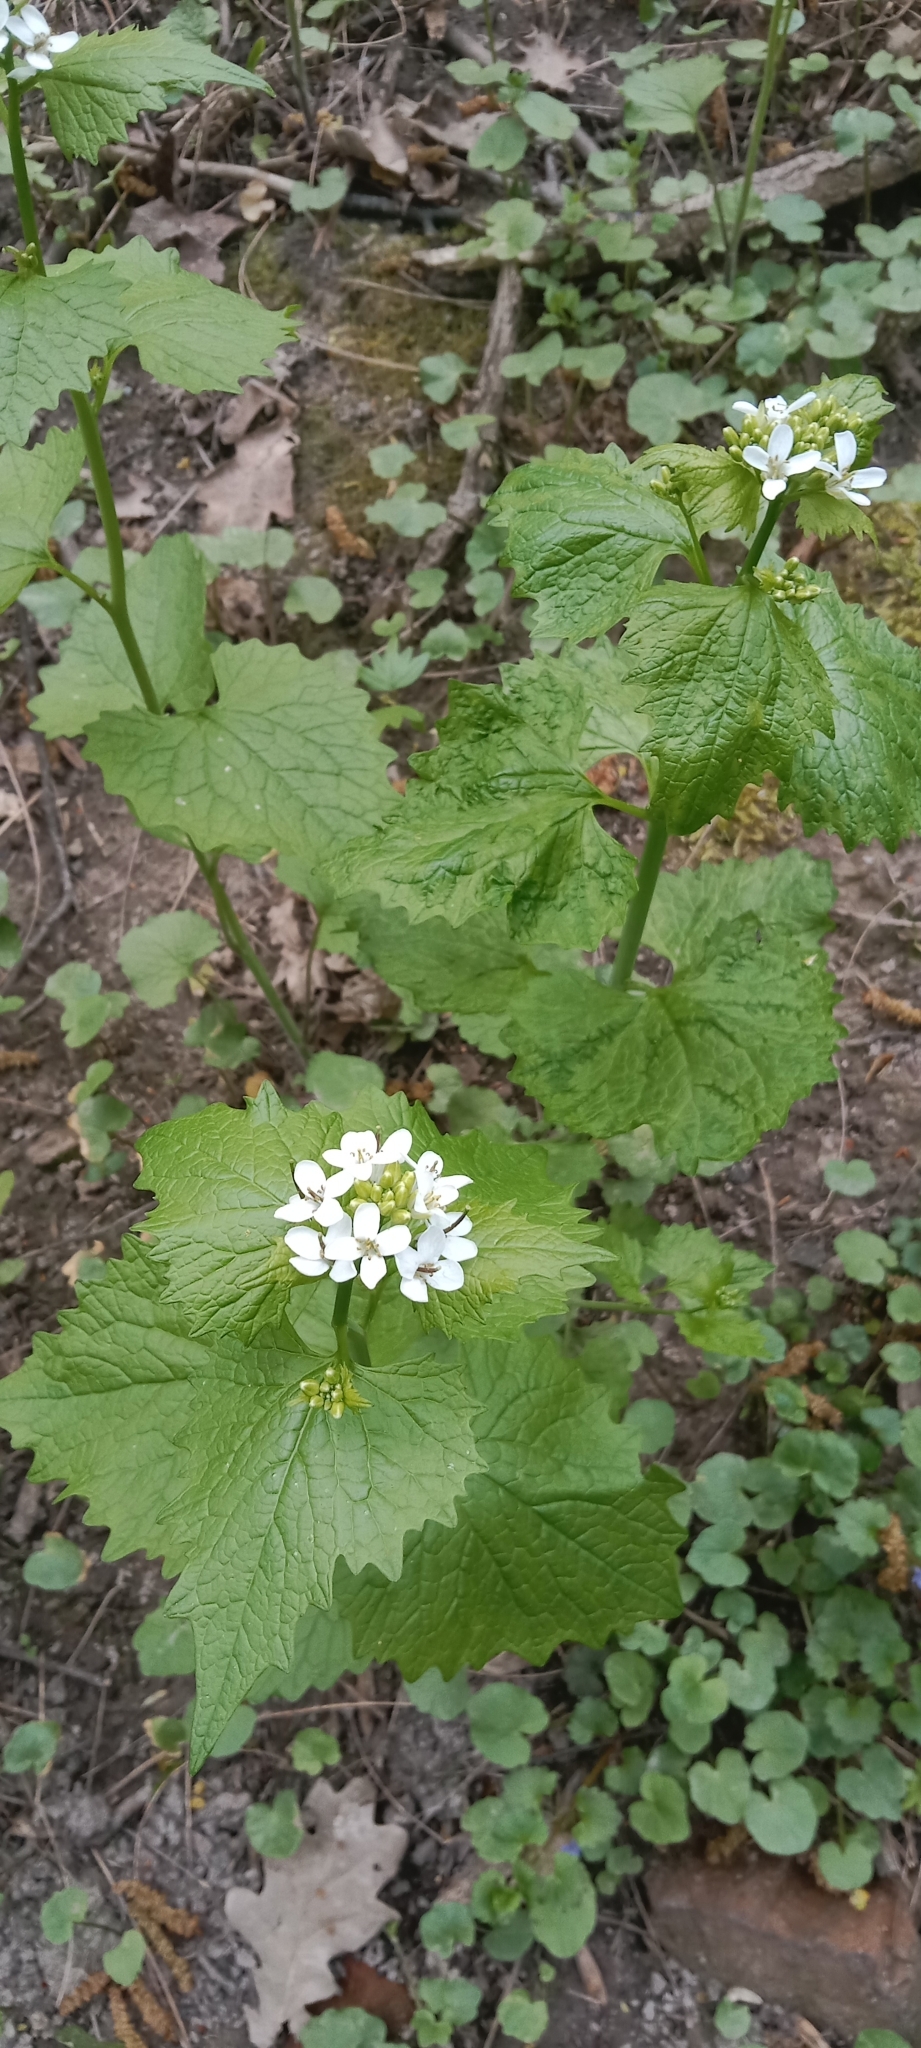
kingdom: Plantae
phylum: Tracheophyta
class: Magnoliopsida
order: Brassicales
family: Brassicaceae
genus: Alliaria
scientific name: Alliaria petiolata
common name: Garlic mustard
